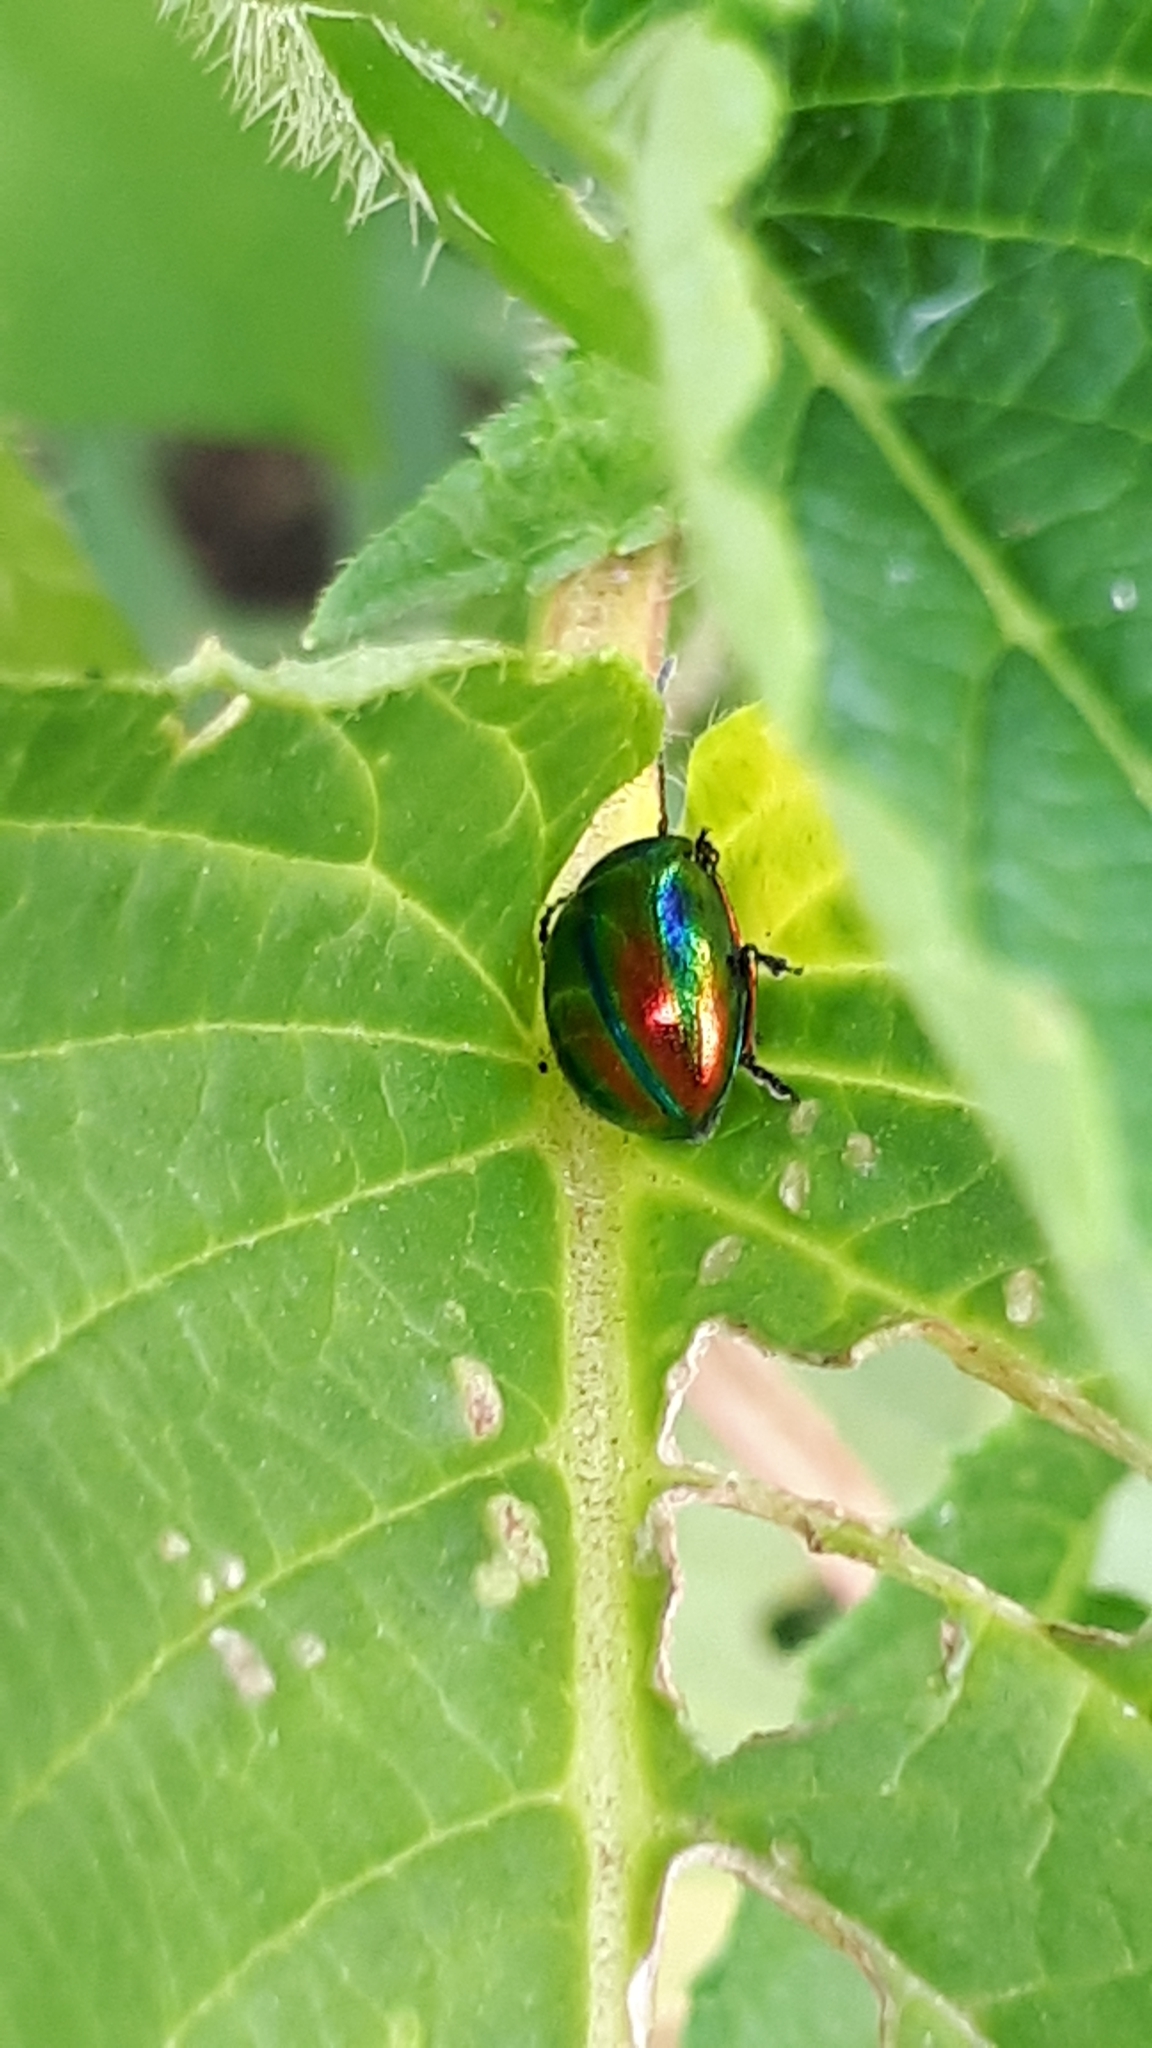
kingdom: Animalia
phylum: Arthropoda
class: Insecta
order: Coleoptera
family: Chrysomelidae
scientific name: Chrysomelidae
